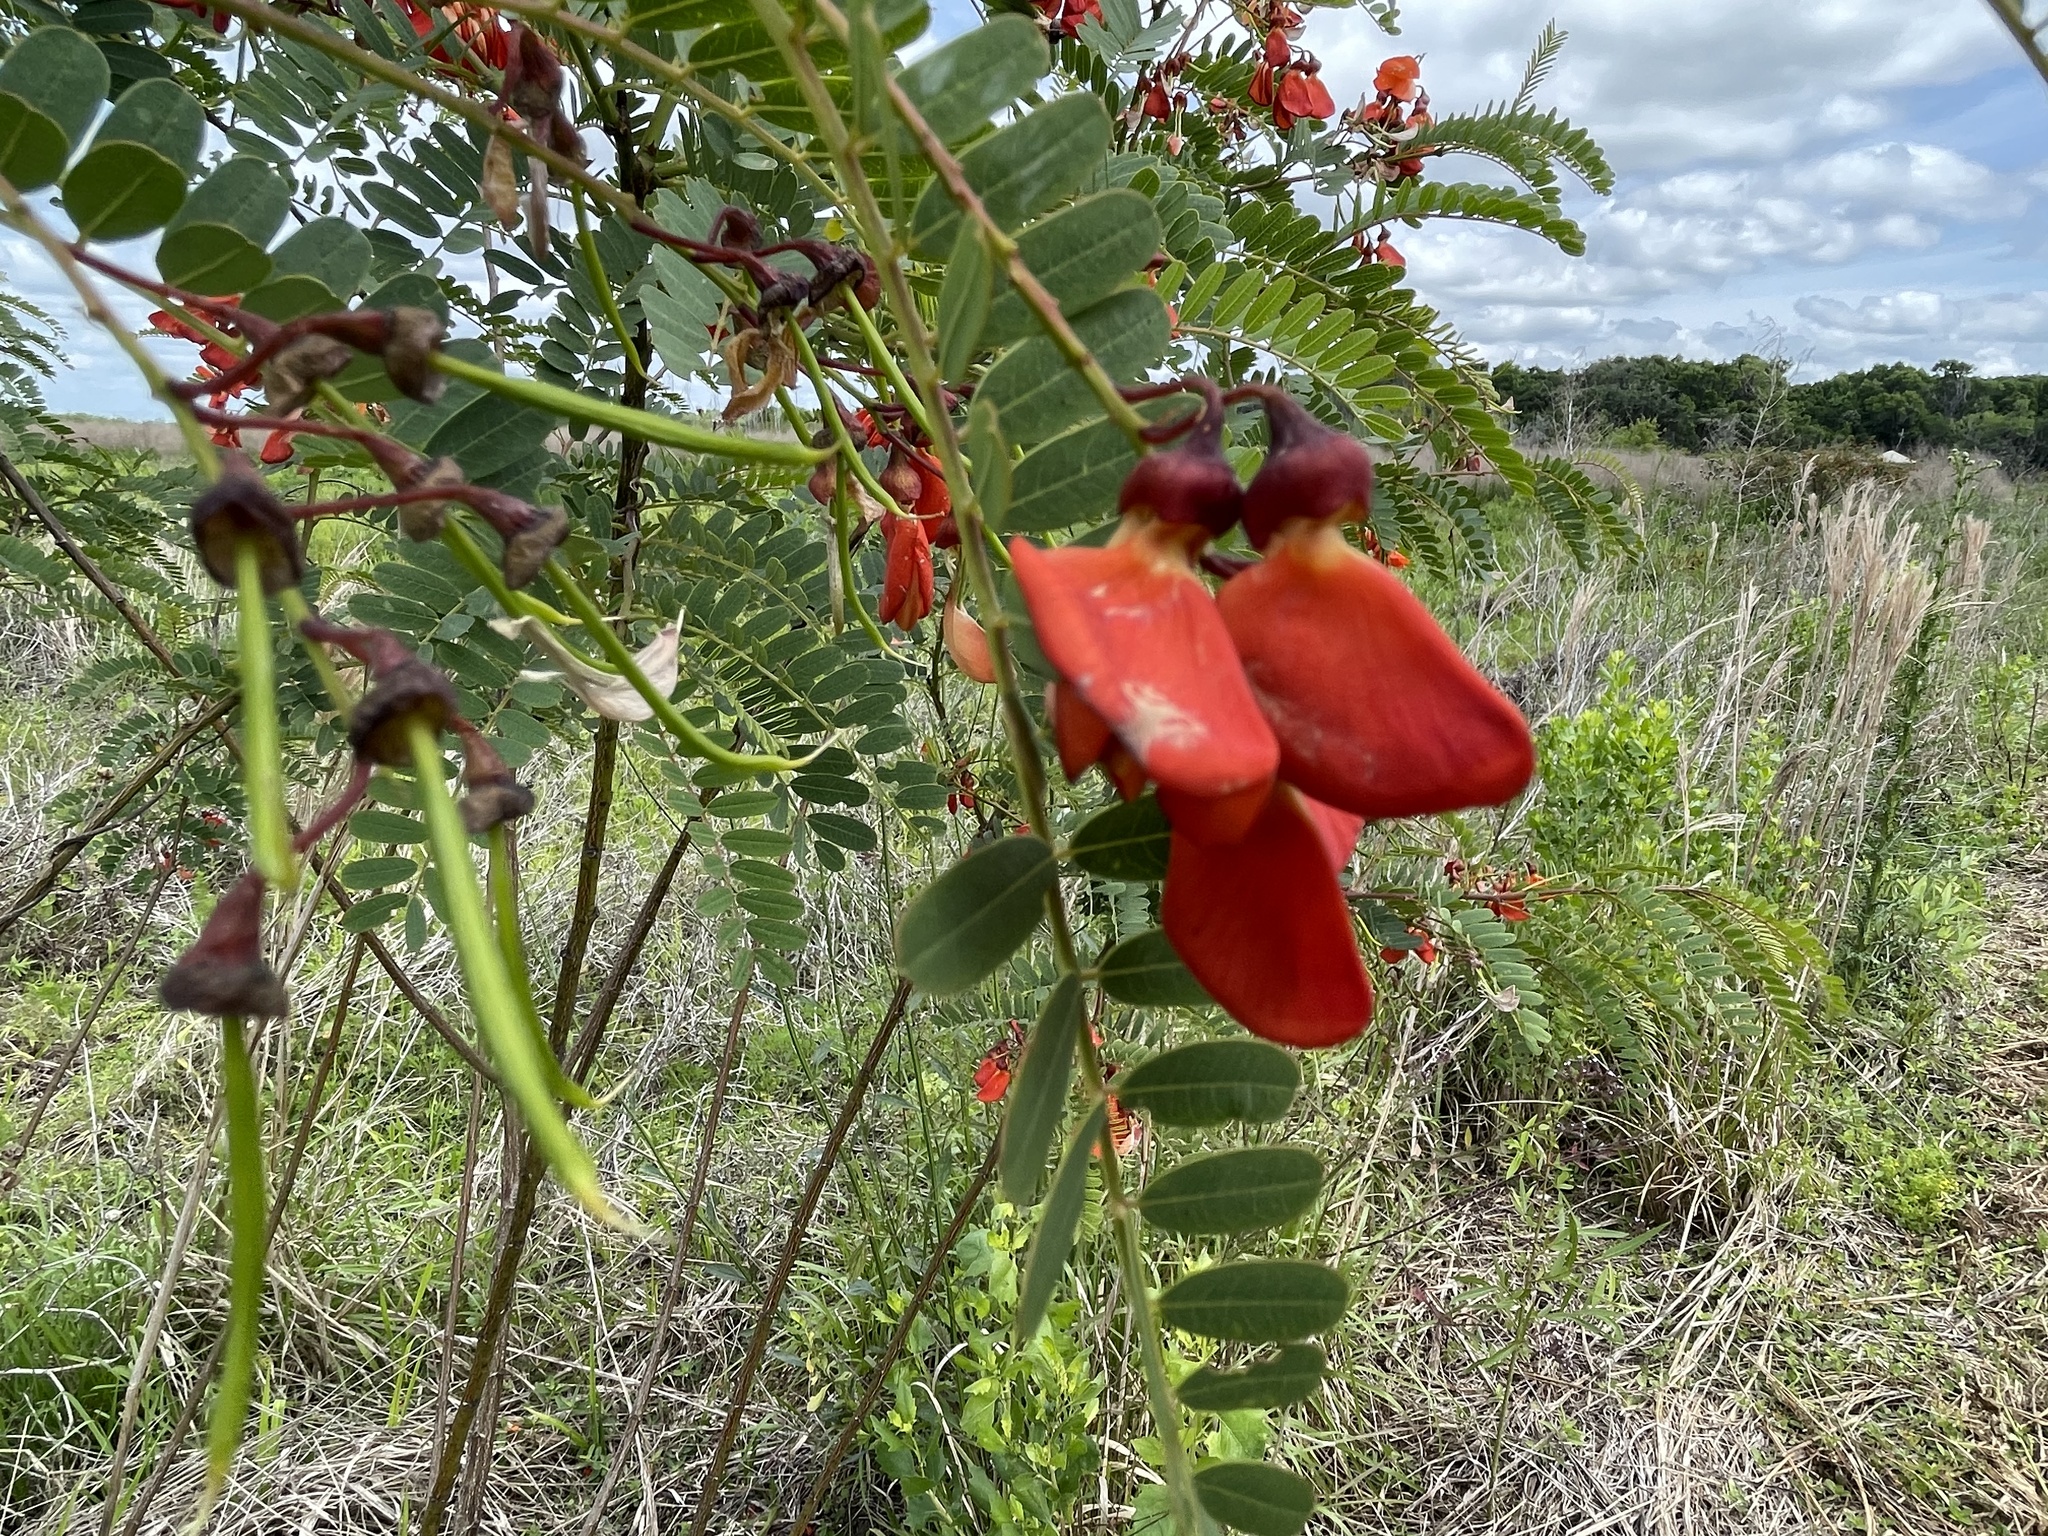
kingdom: Plantae
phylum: Tracheophyta
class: Magnoliopsida
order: Fabales
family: Fabaceae
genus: Sesbania
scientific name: Sesbania punicea
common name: Rattlebox
